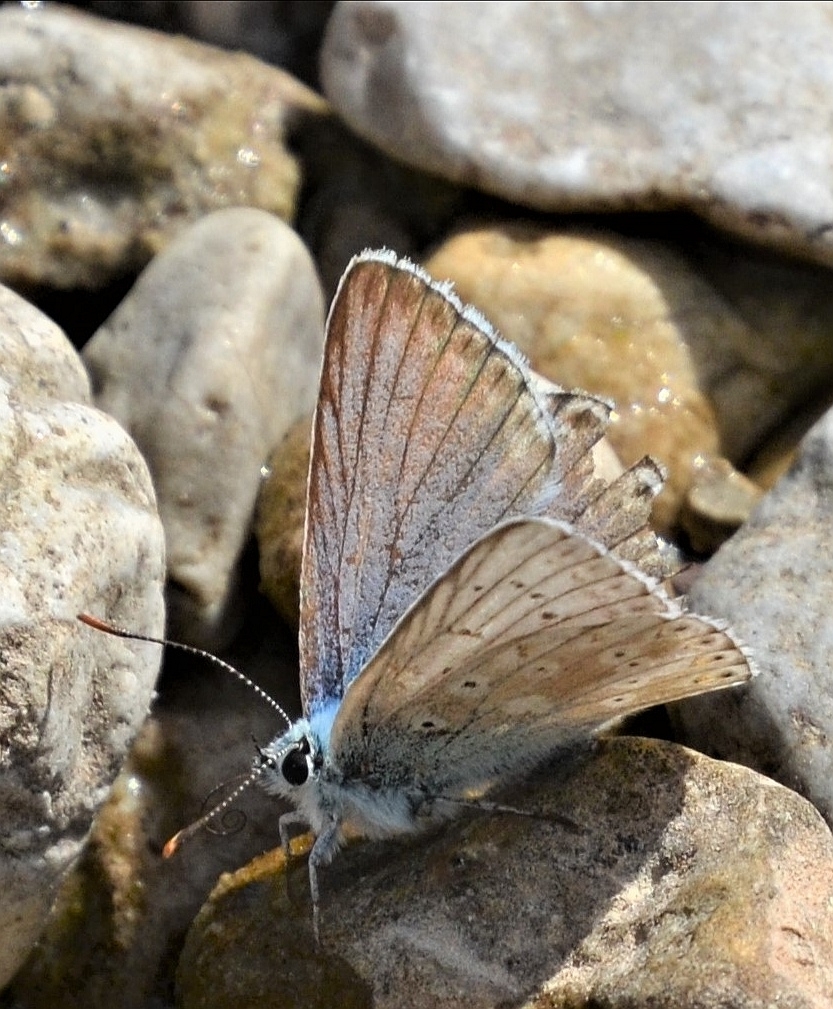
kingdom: Animalia
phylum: Arthropoda
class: Insecta
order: Lepidoptera
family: Lycaenidae
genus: Lysandra
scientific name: Lysandra coridon
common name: Chalkhill blue
